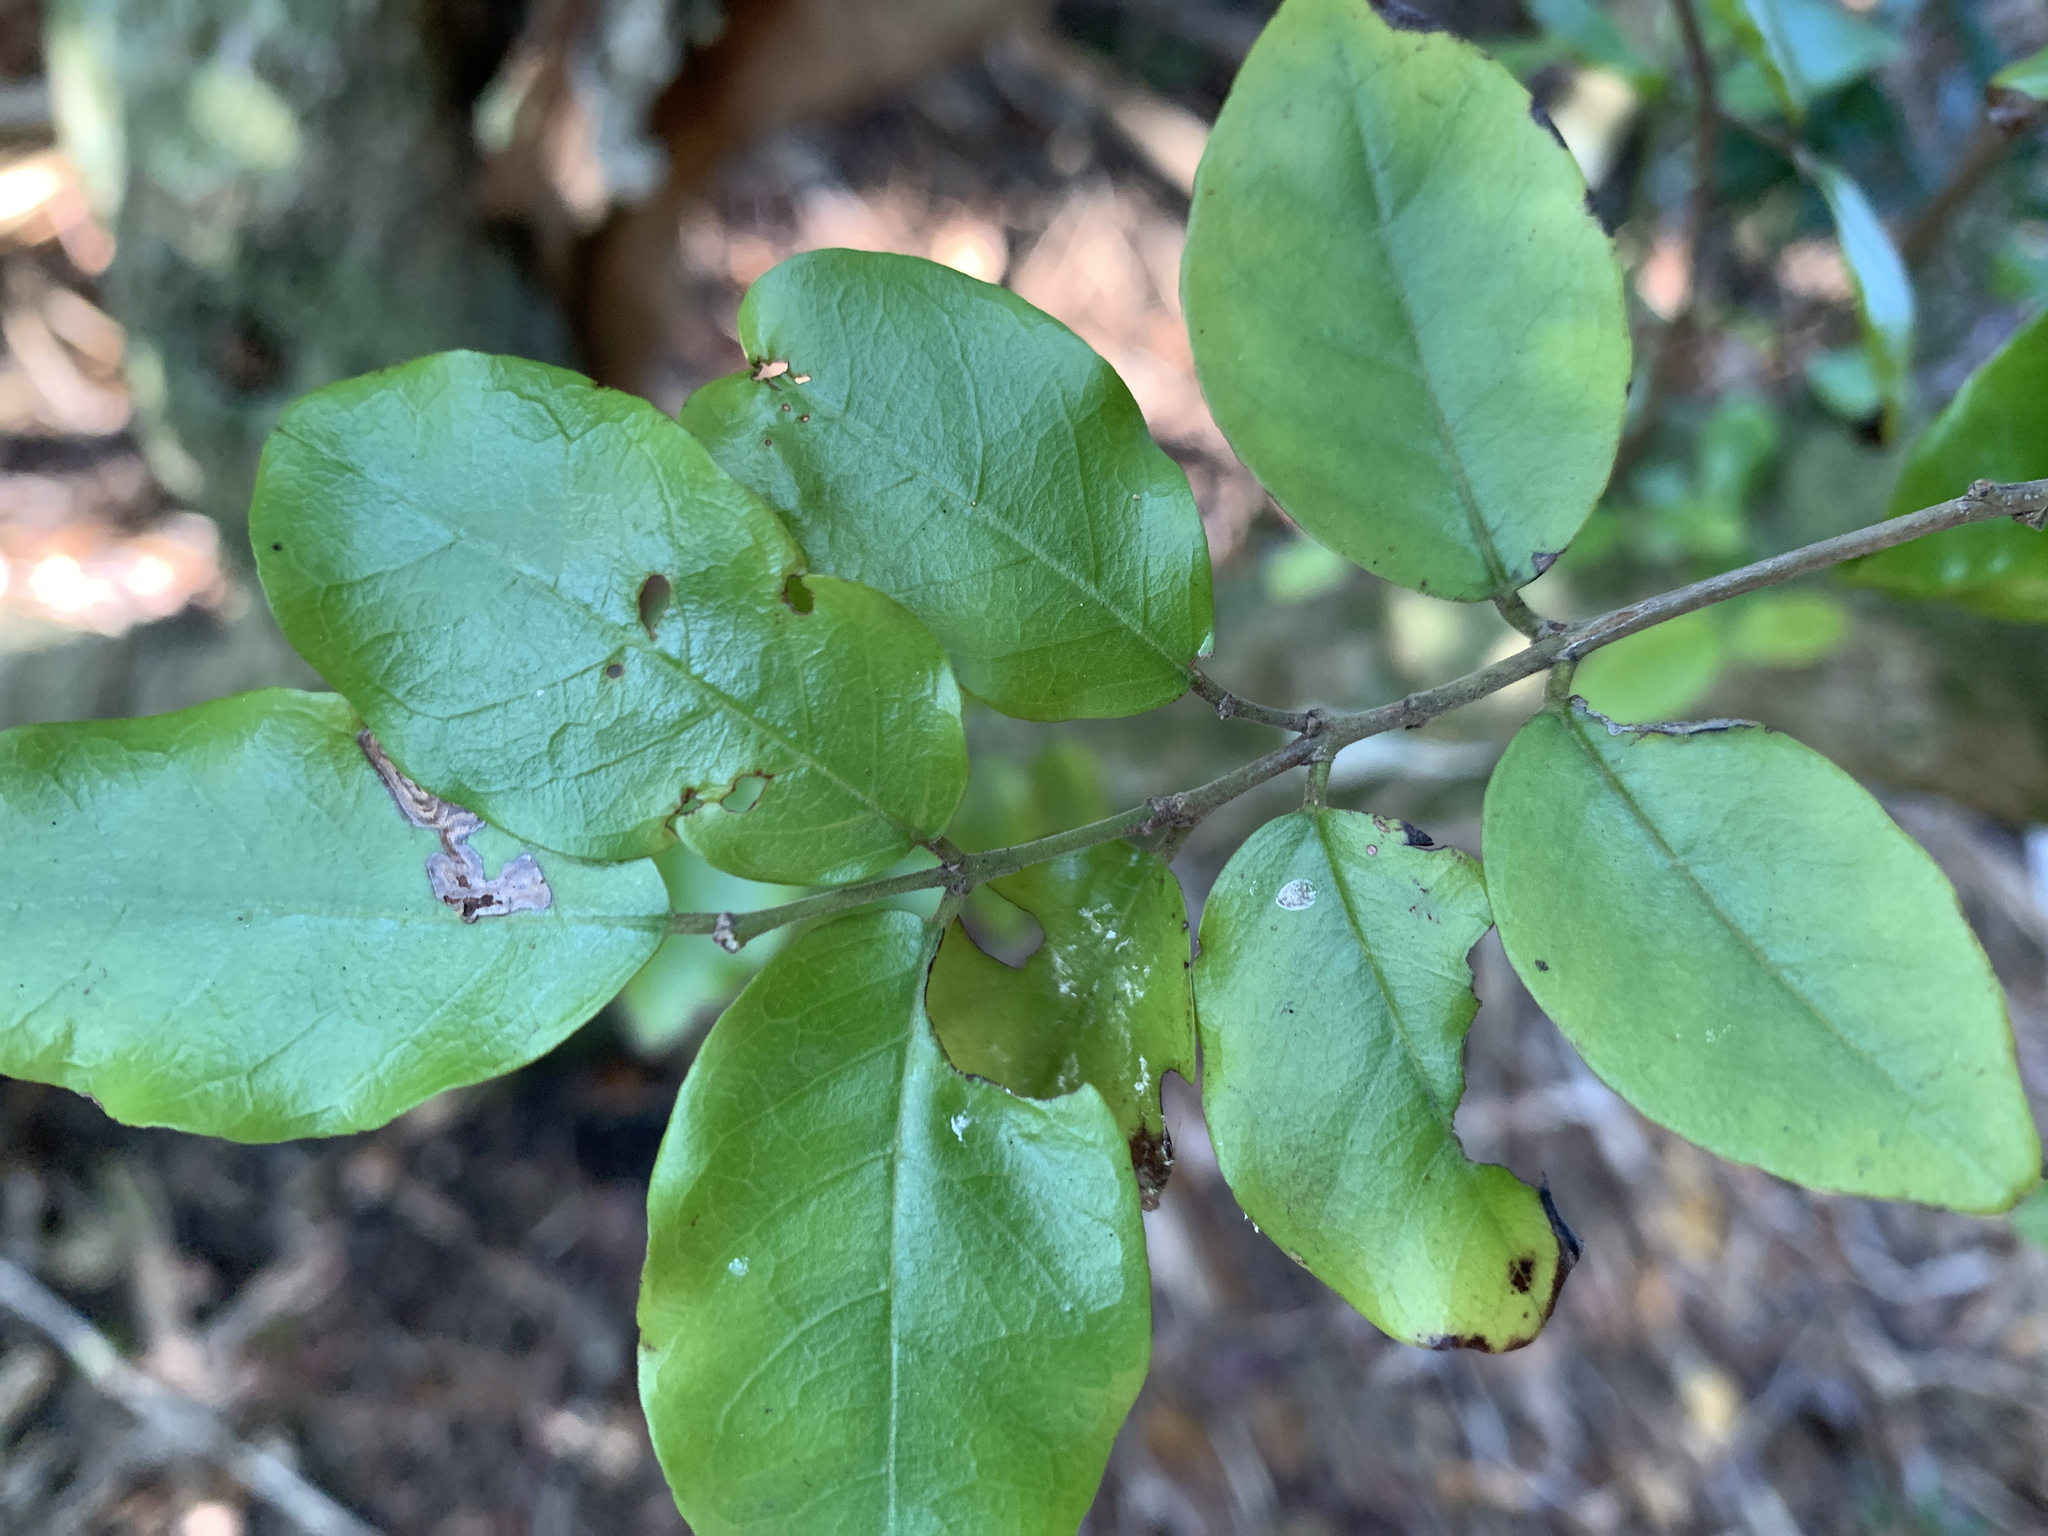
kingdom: Plantae
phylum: Tracheophyta
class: Magnoliopsida
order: Rosales
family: Rhamnaceae
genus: Krugiodendron
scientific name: Krugiodendron ferreum
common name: Iron wood
